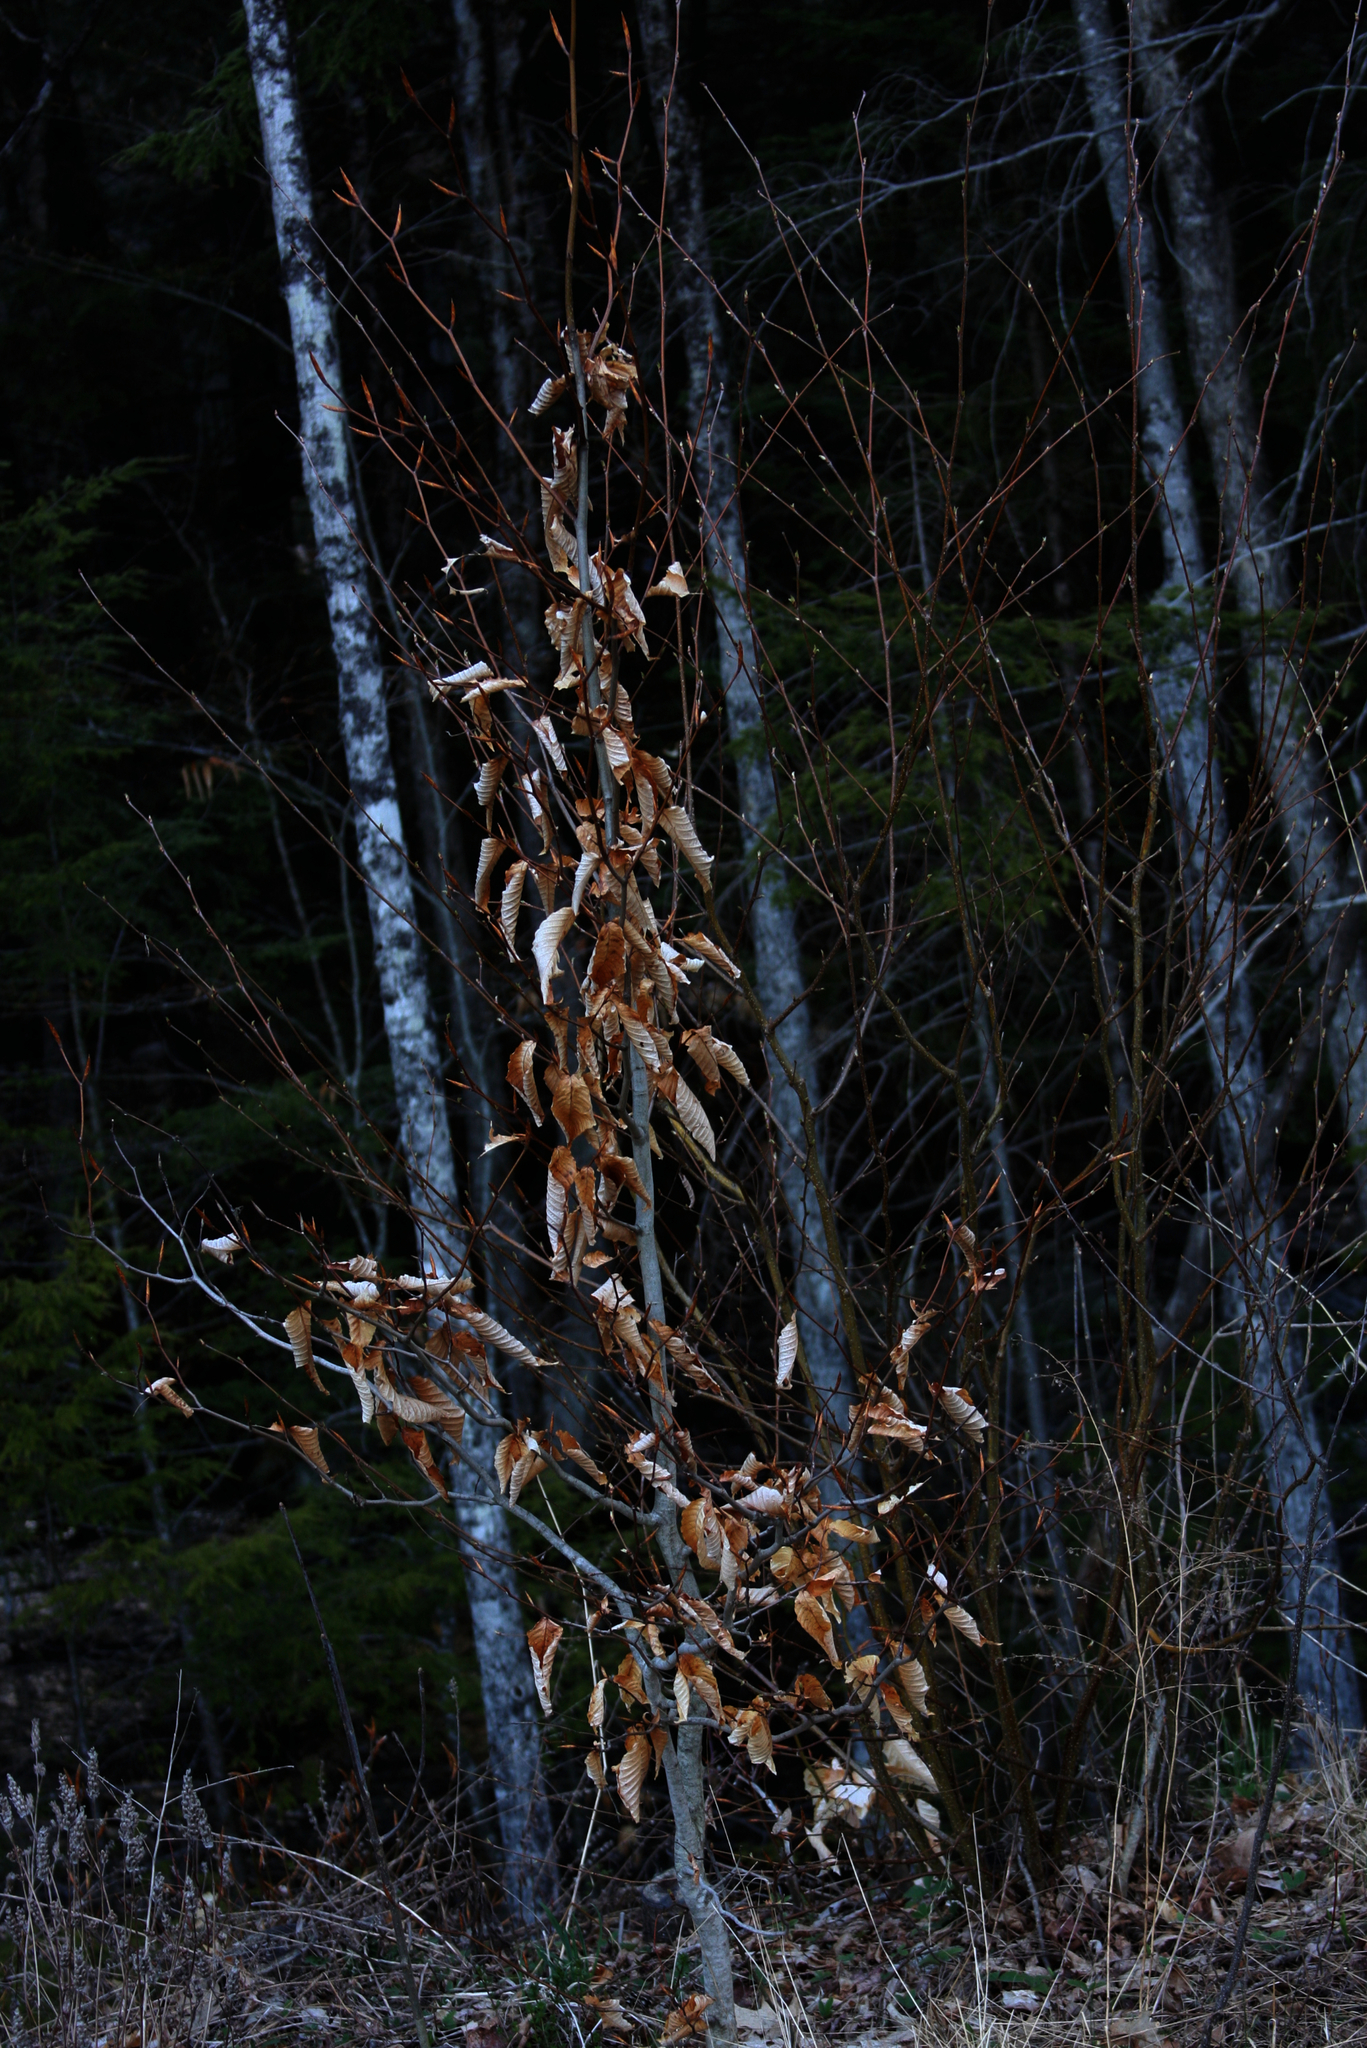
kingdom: Plantae
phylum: Tracheophyta
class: Magnoliopsida
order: Fagales
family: Fagaceae
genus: Fagus
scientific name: Fagus grandifolia
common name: American beech
